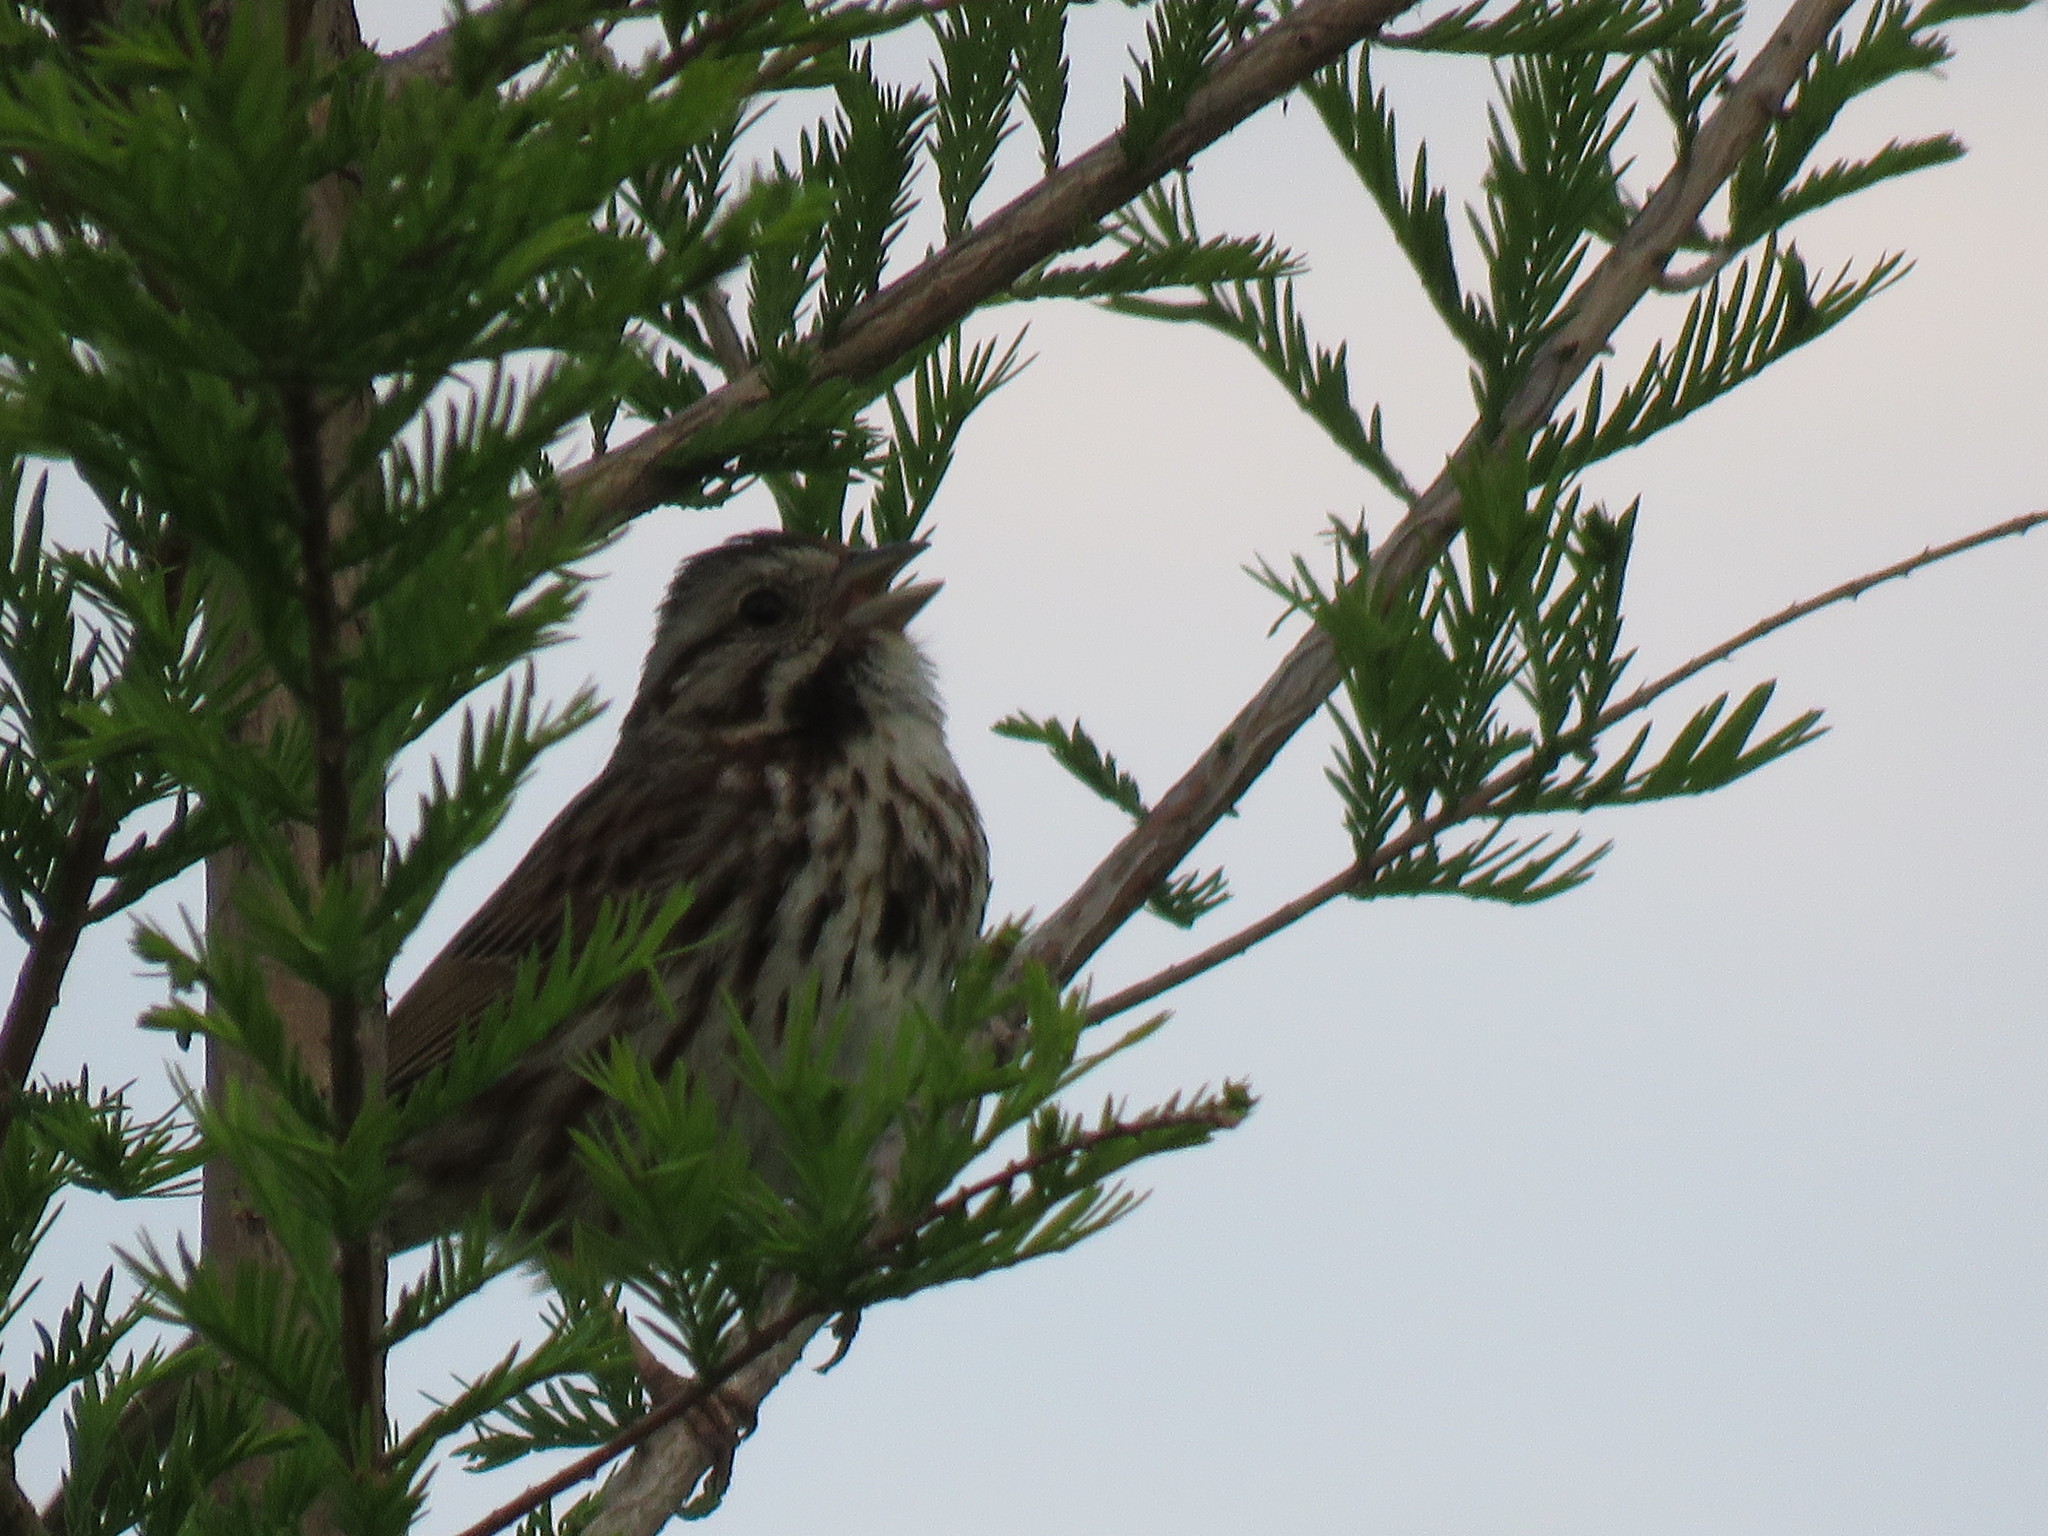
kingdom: Animalia
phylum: Chordata
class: Aves
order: Passeriformes
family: Passerellidae
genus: Melospiza
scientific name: Melospiza melodia
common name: Song sparrow
